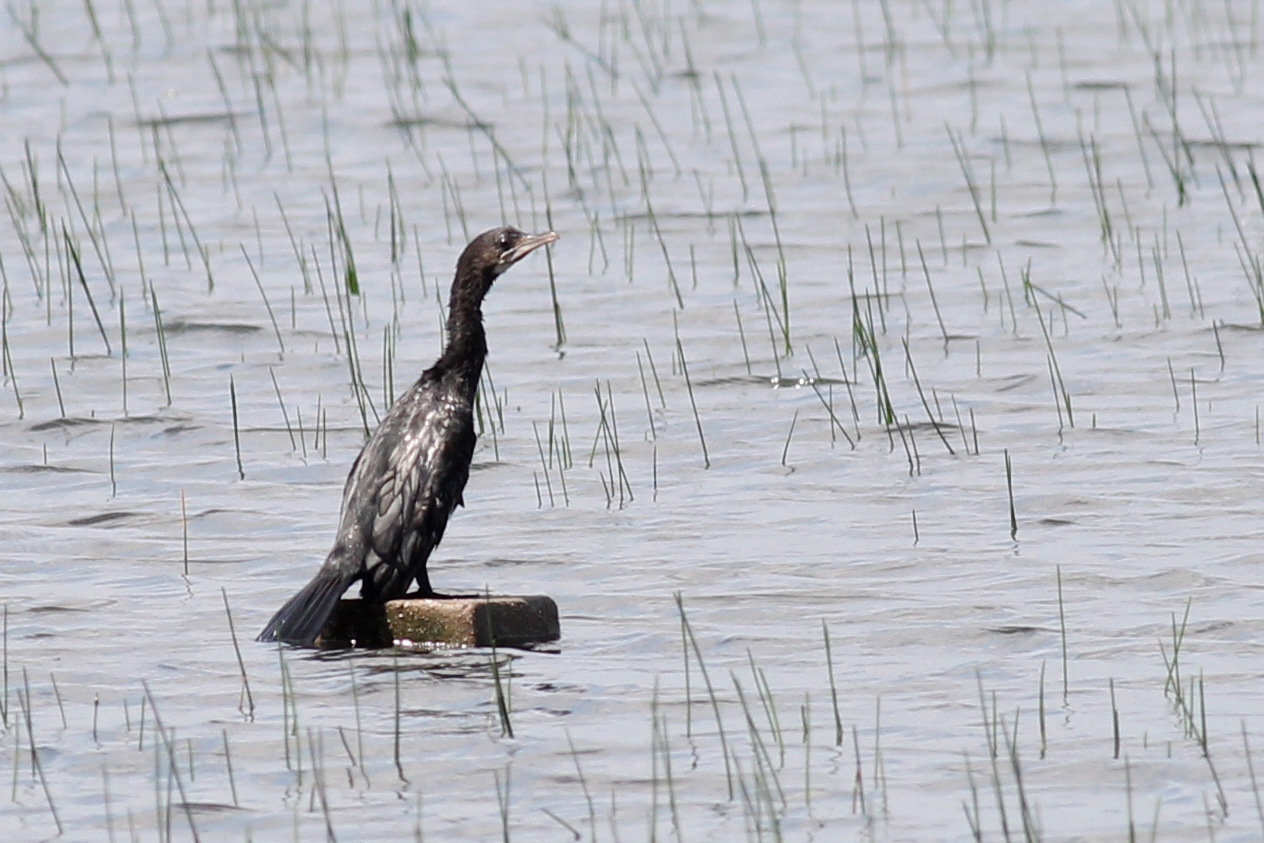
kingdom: Animalia
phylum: Chordata
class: Aves
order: Suliformes
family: Phalacrocoracidae
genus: Microcarbo
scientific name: Microcarbo niger
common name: Little cormorant
